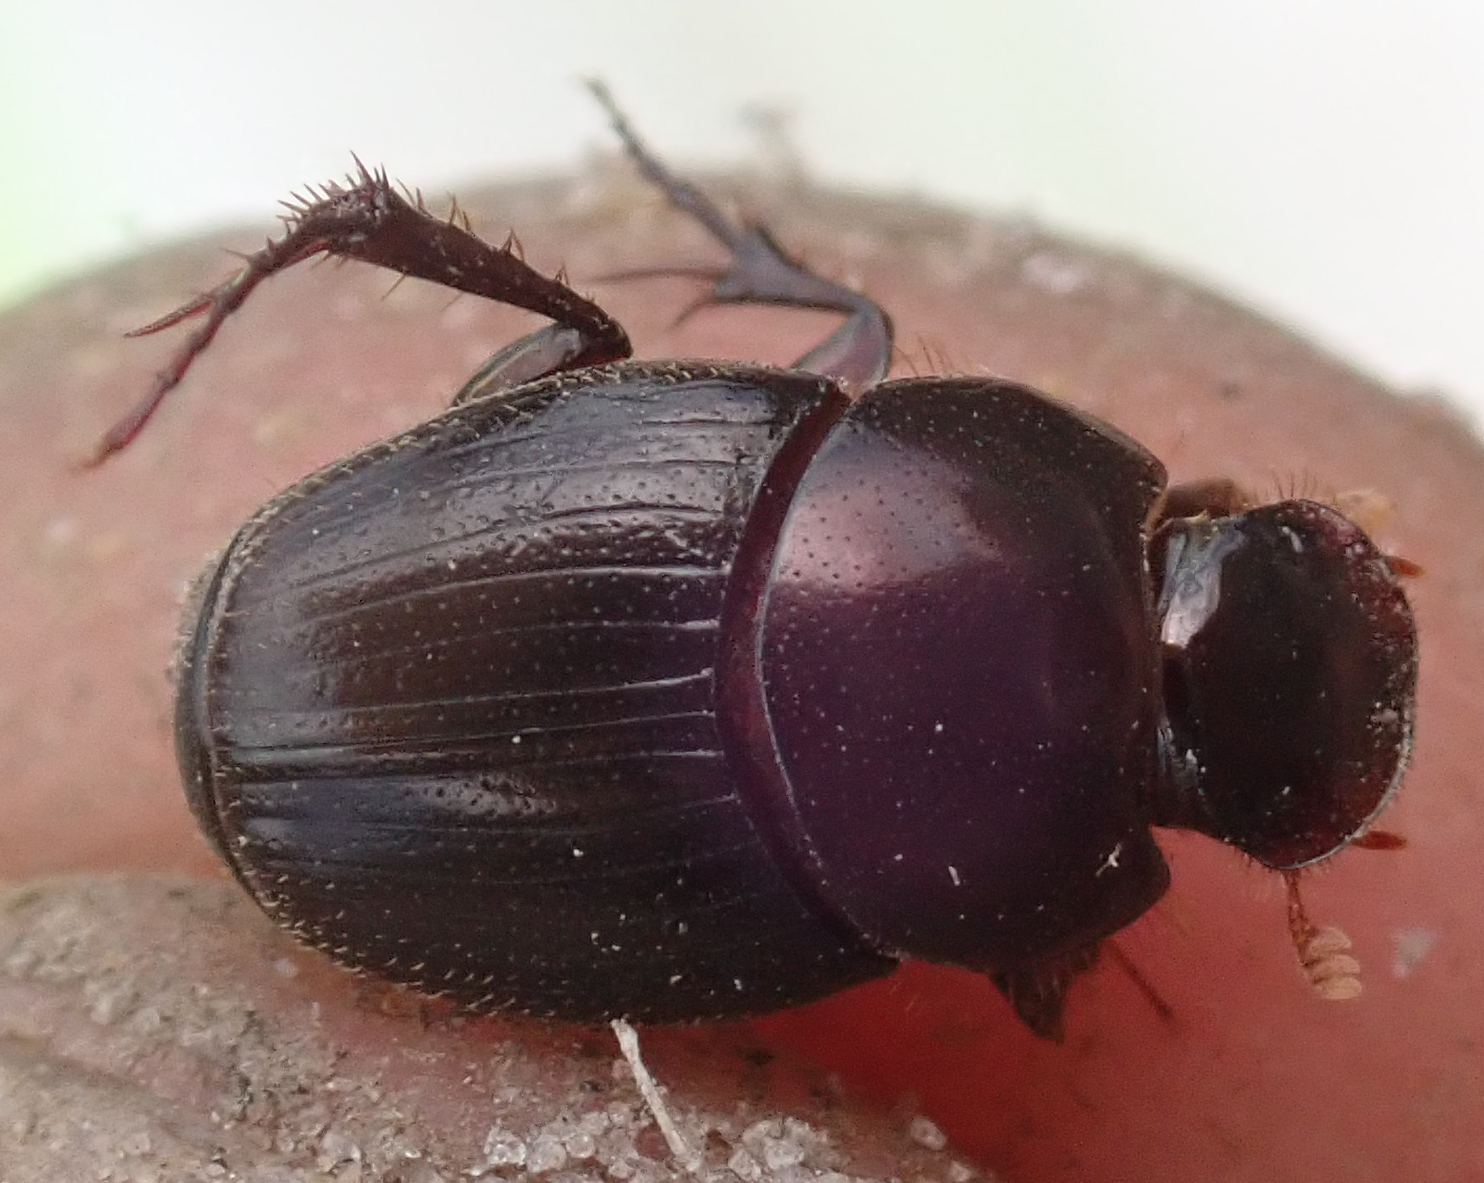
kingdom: Animalia
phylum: Arthropoda
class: Insecta
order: Coleoptera
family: Scarabaeidae
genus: Mimonthophagus
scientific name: Mimonthophagus anomalus
